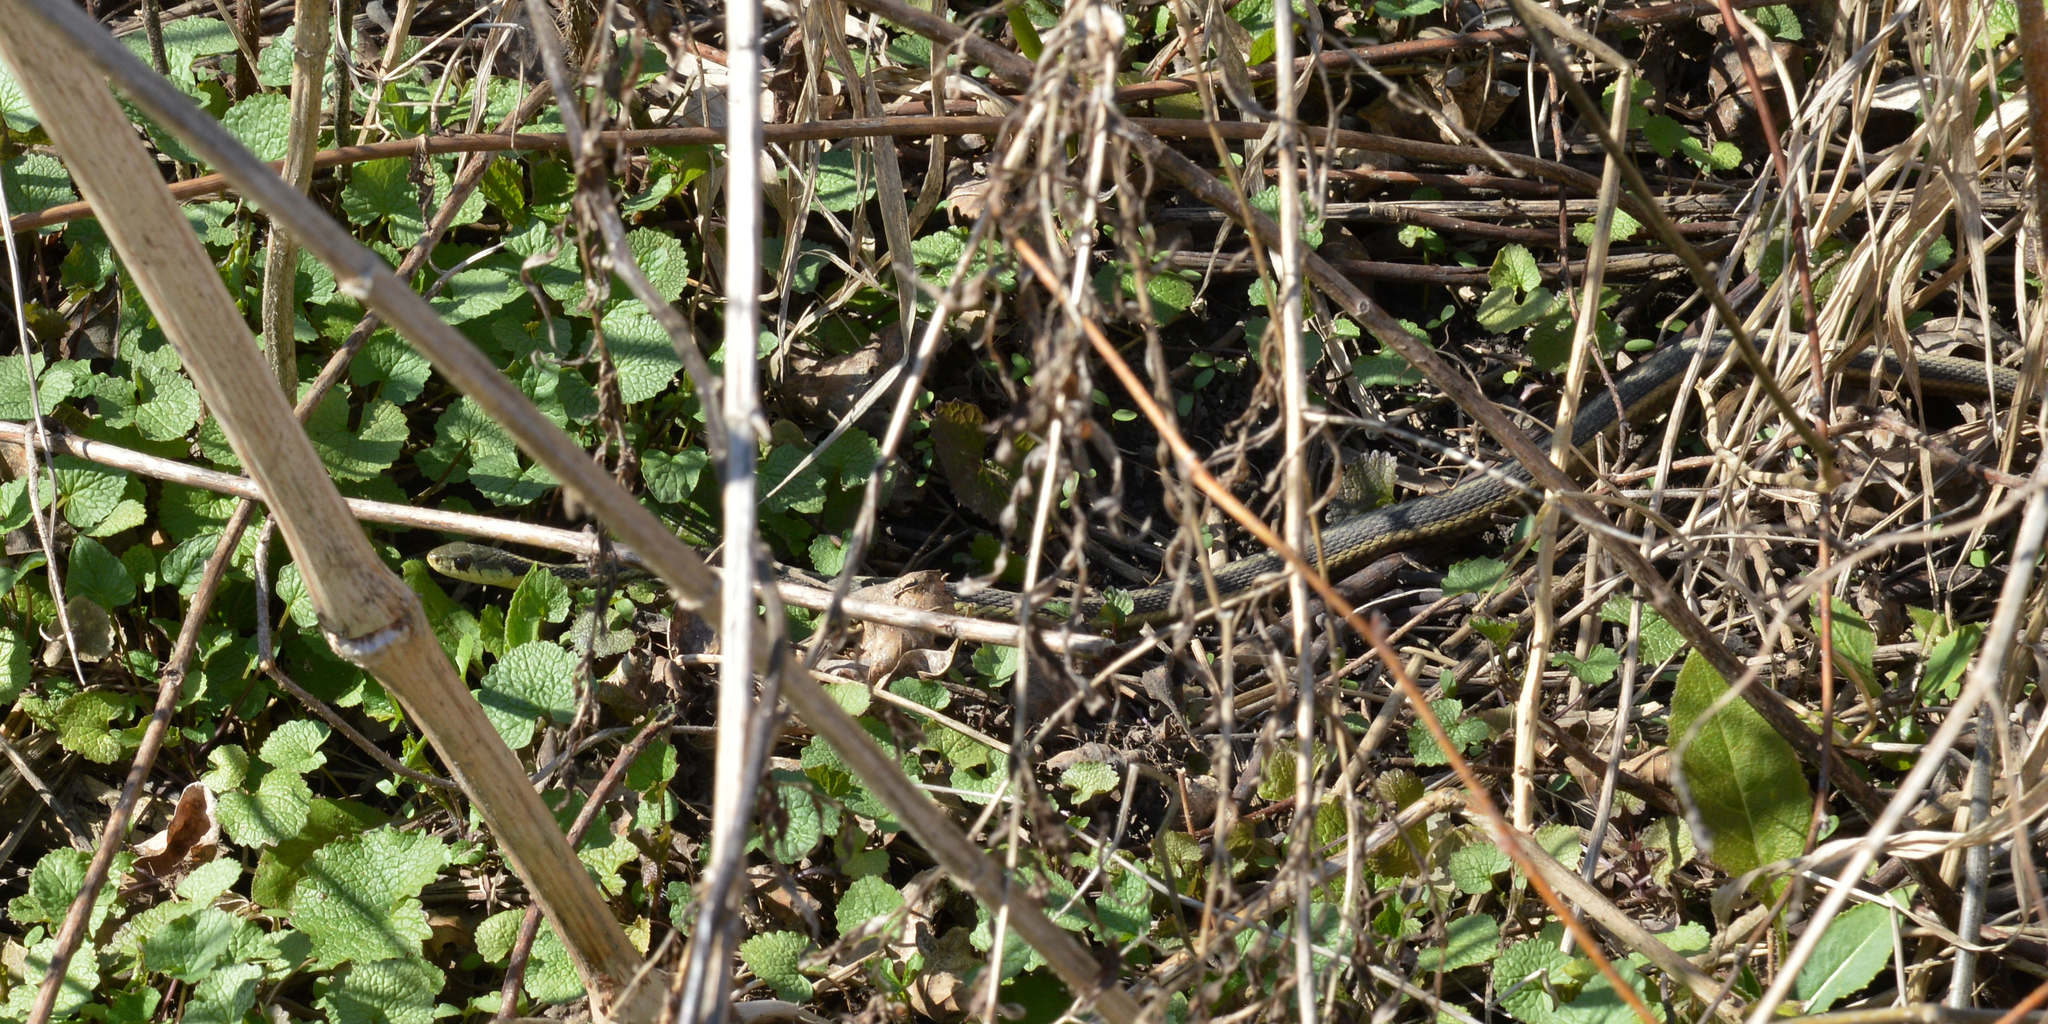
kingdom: Animalia
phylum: Chordata
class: Squamata
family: Colubridae
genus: Thamnophis
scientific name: Thamnophis sirtalis
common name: Common garter snake
